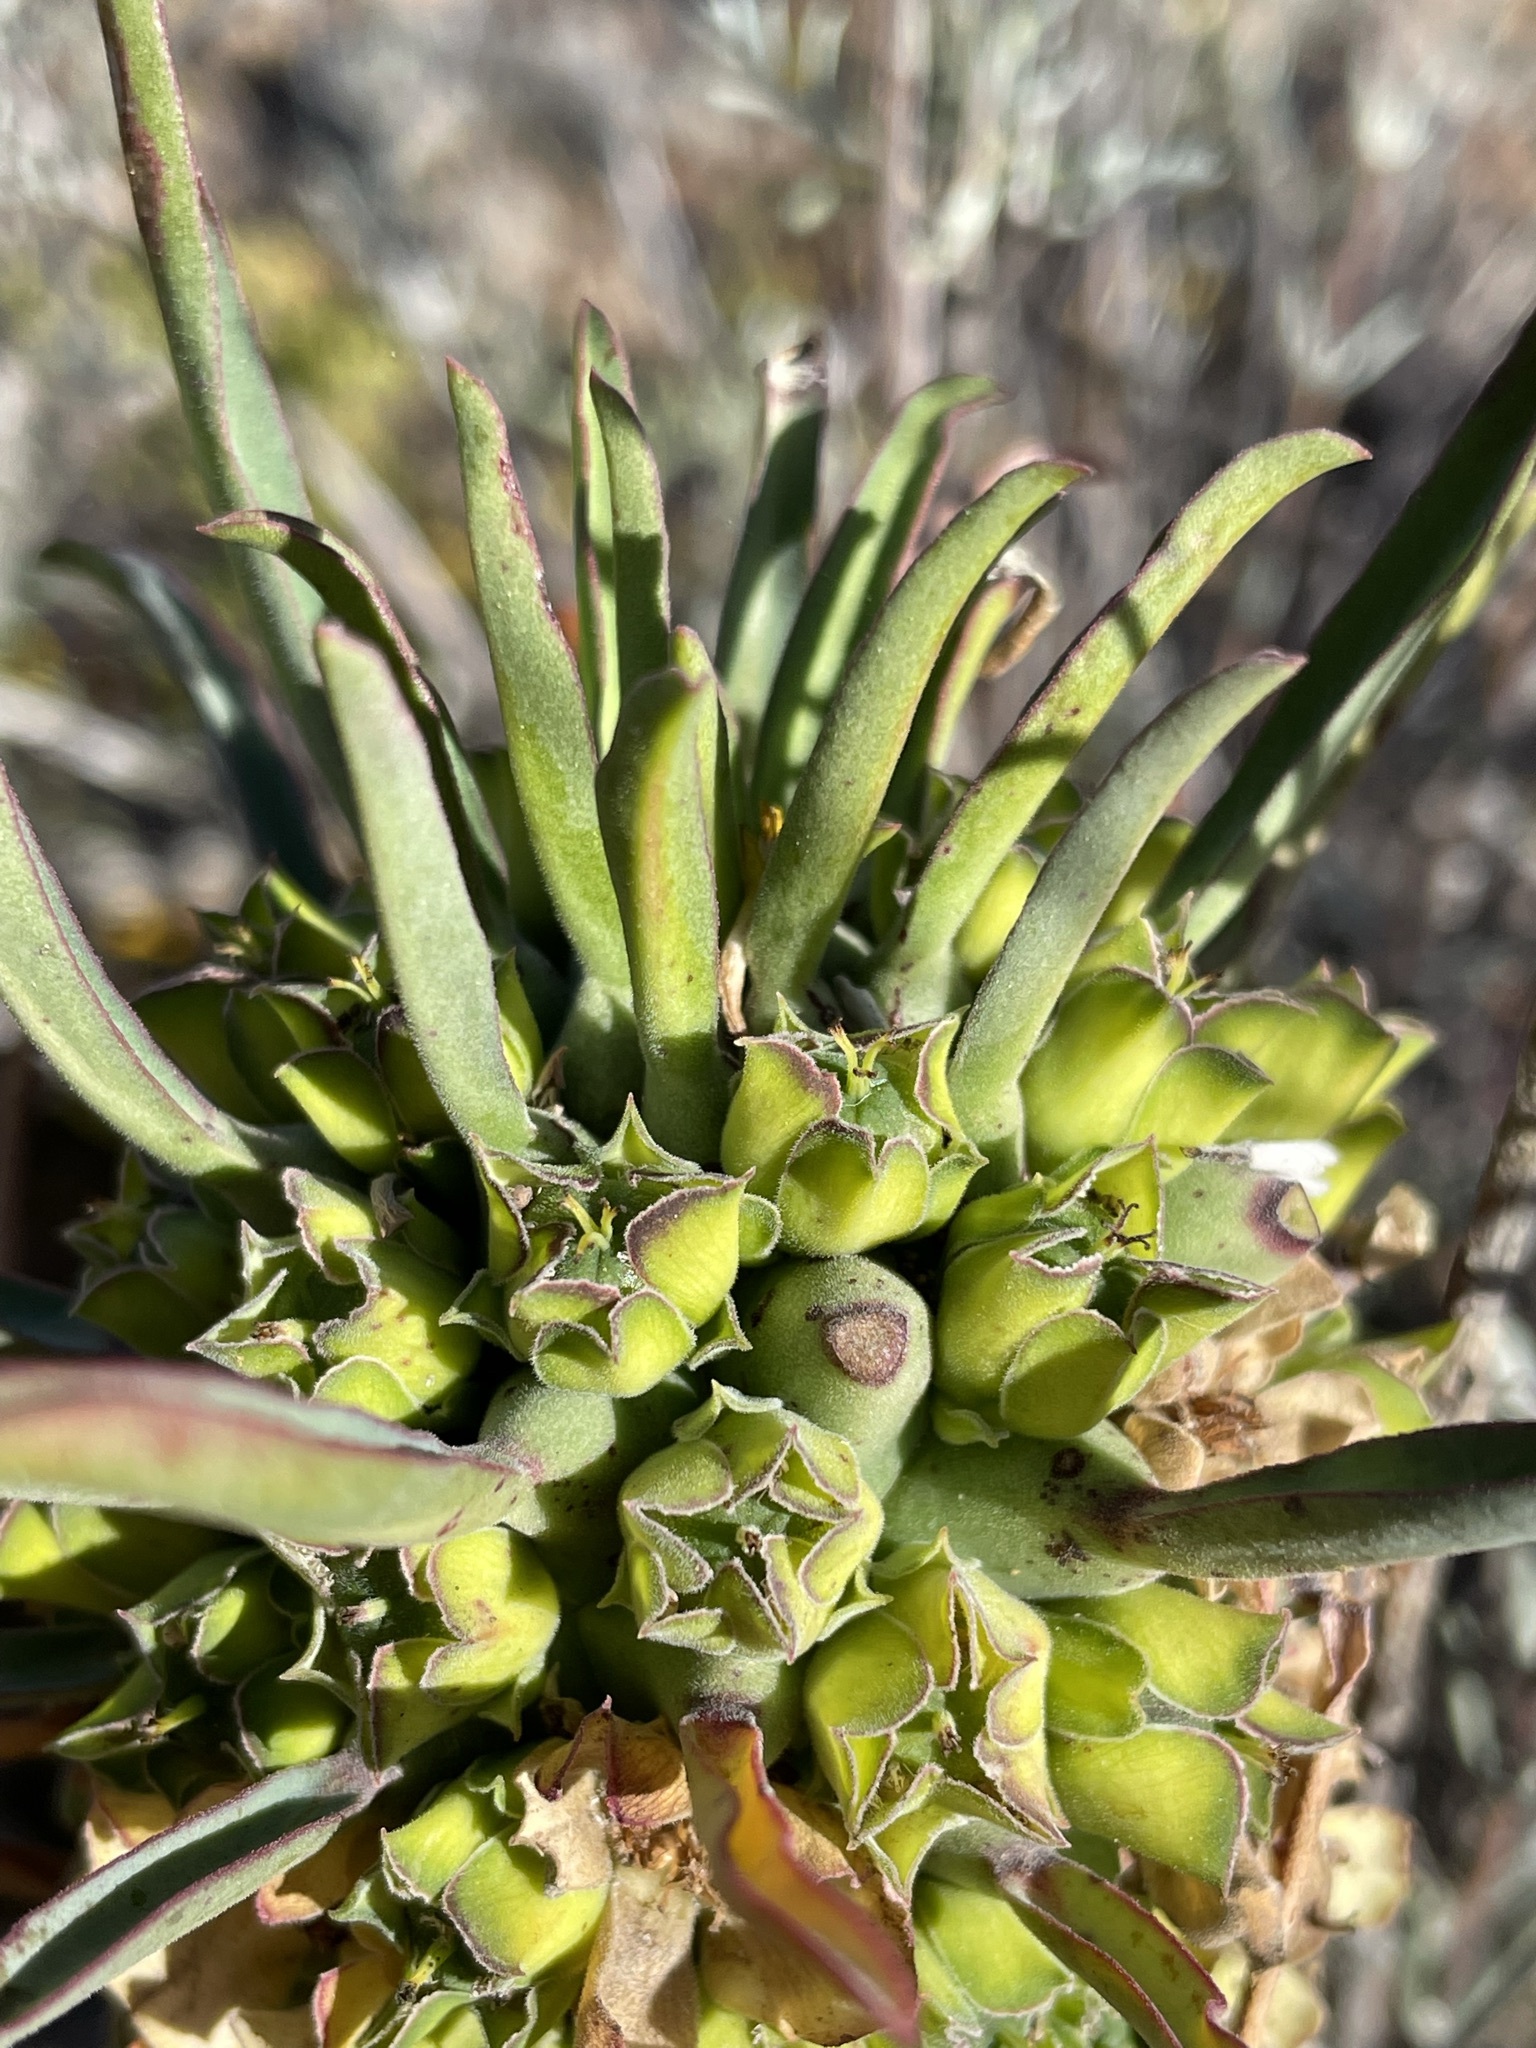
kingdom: Plantae
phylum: Tracheophyta
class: Magnoliopsida
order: Malpighiales
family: Euphorbiaceae
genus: Euphorbia
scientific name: Euphorbia clandestina
